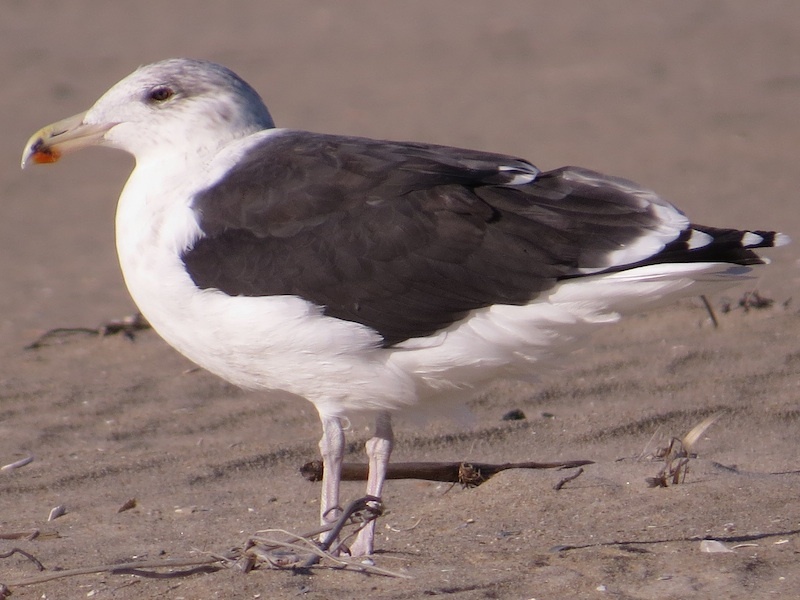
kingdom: Animalia
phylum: Chordata
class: Aves
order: Charadriiformes
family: Laridae
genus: Larus
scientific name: Larus marinus
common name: Great black-backed gull
